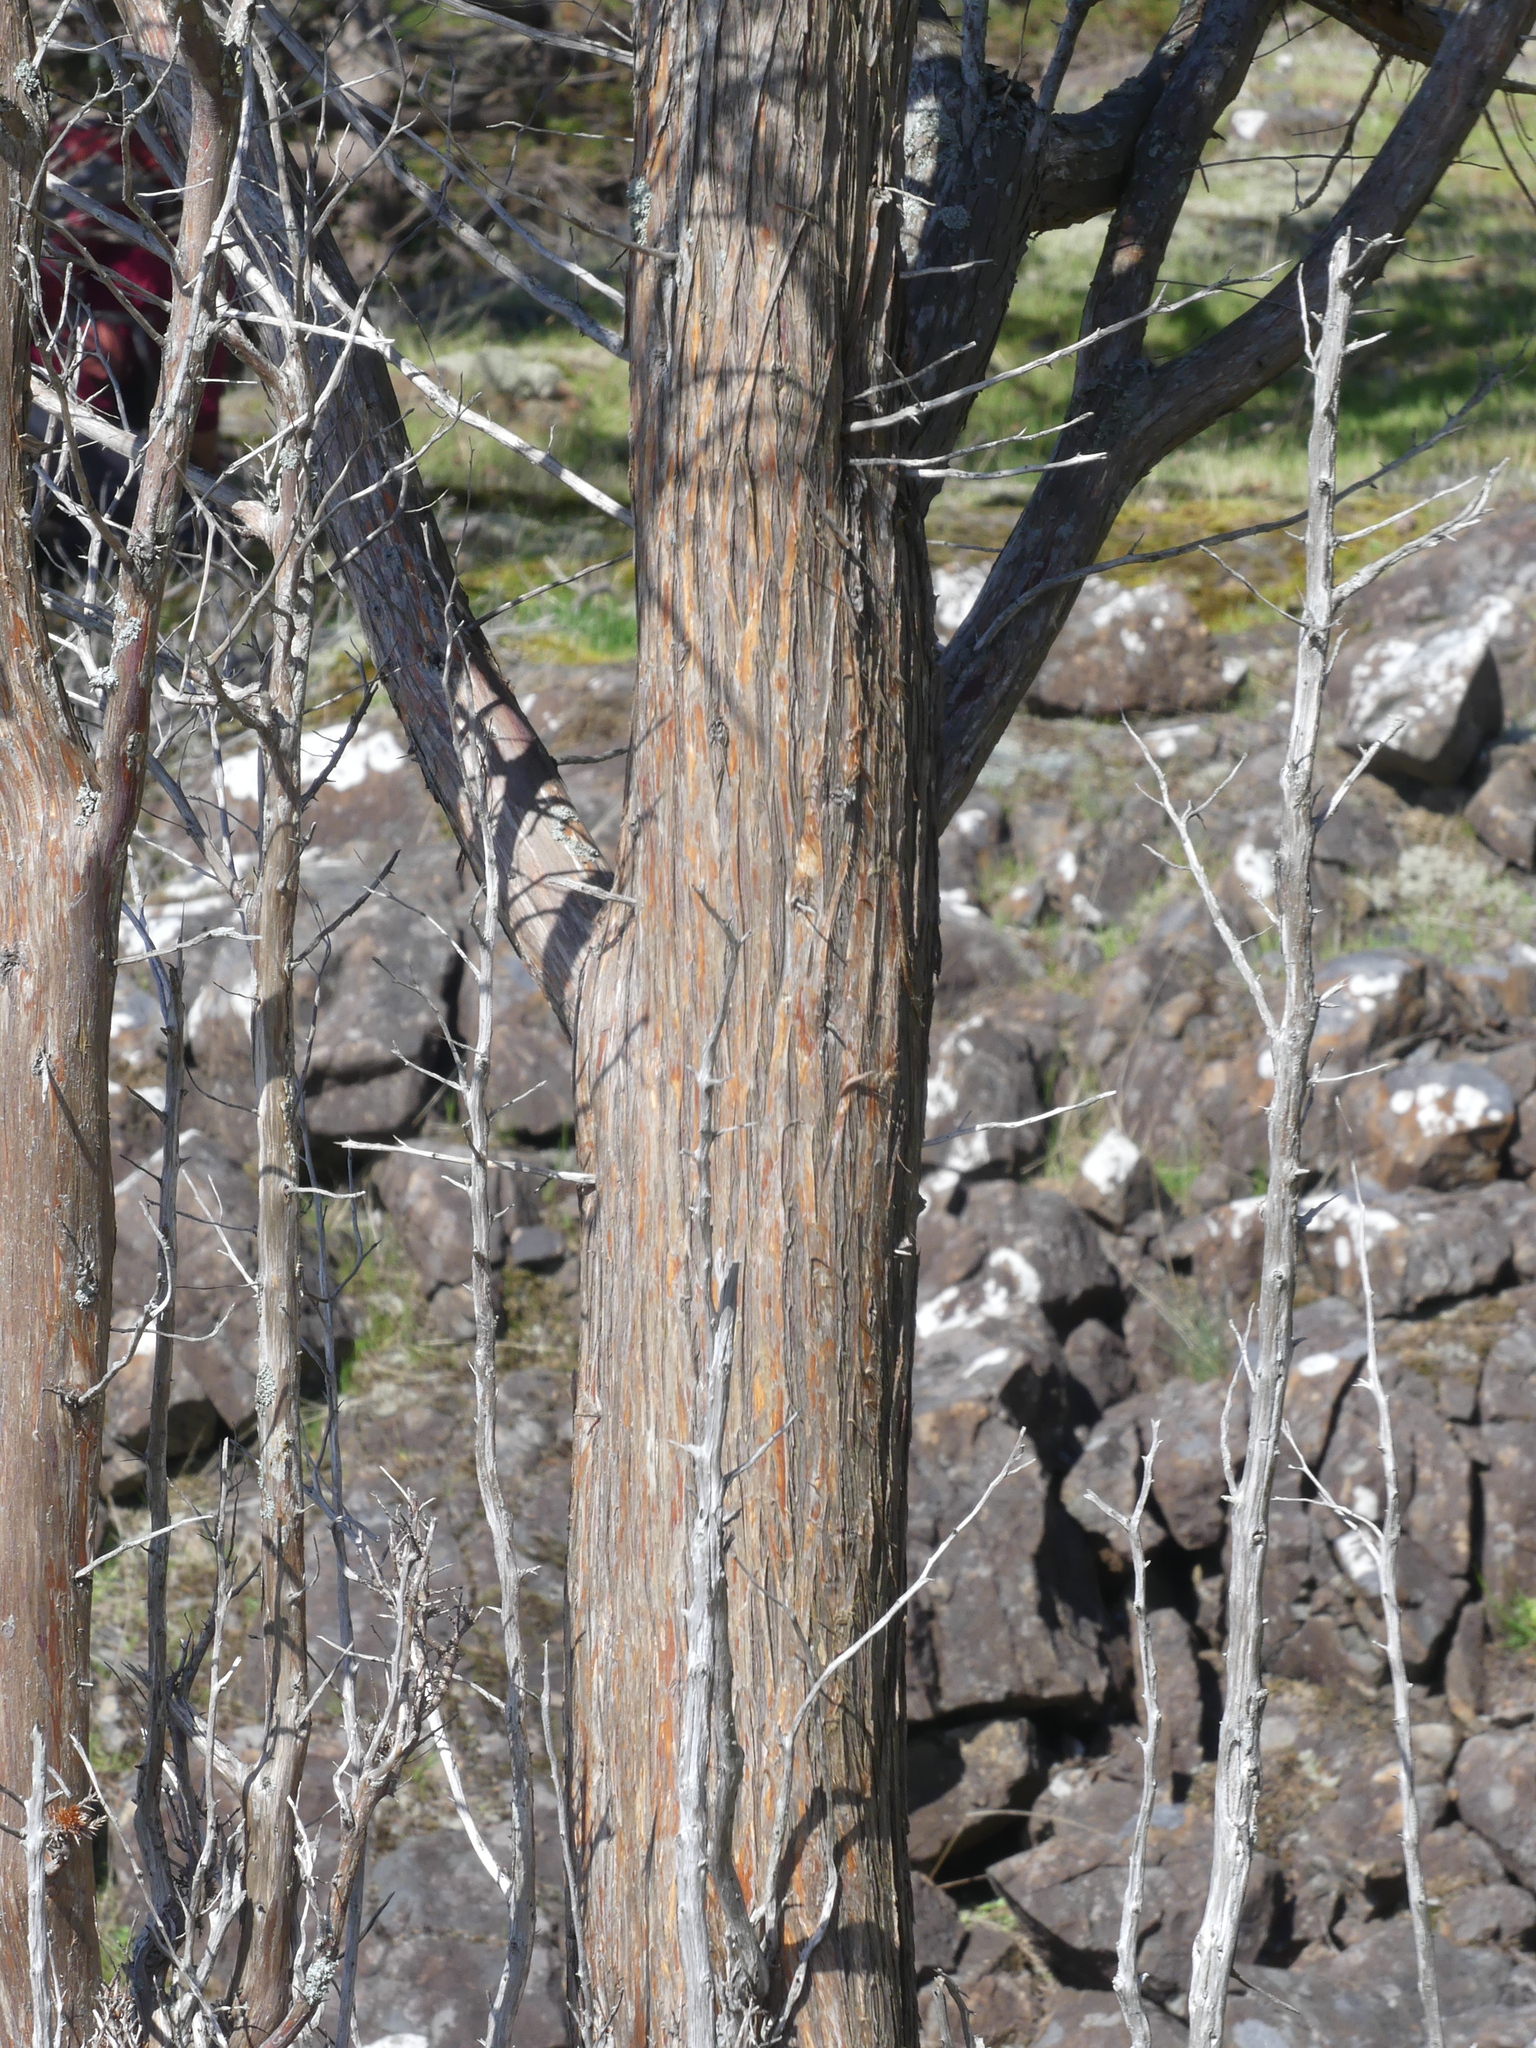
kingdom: Plantae
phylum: Tracheophyta
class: Pinopsida
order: Pinales
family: Cupressaceae
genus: Juniperus
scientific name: Juniperus scopulorum
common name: Rocky mountain juniper
